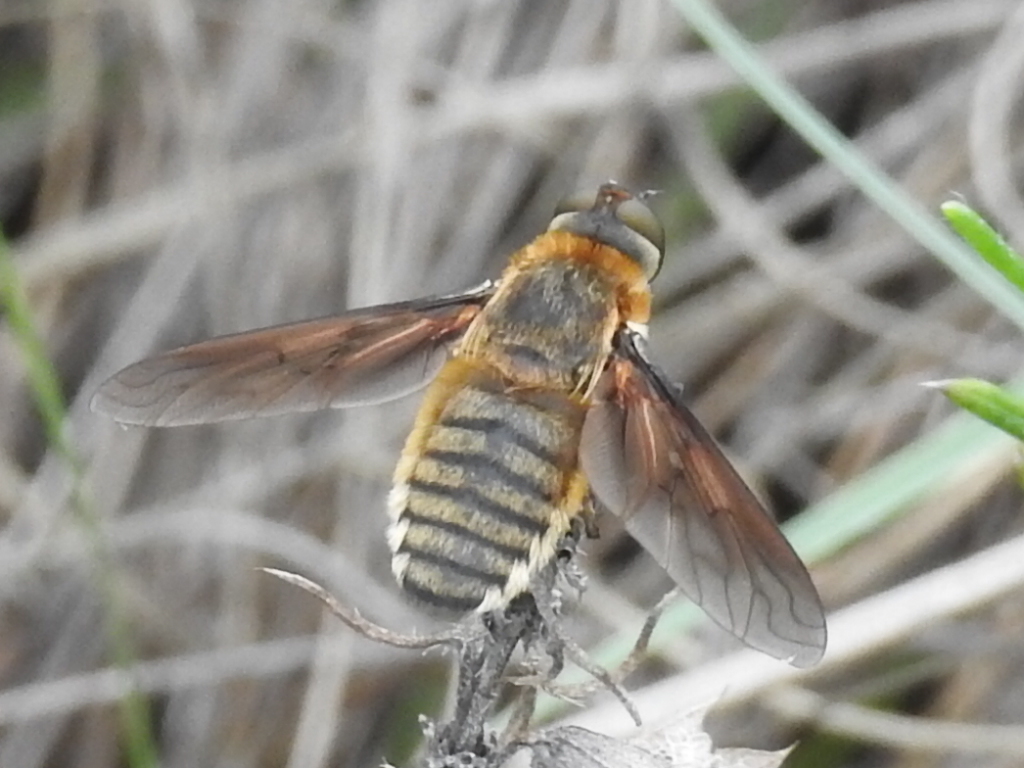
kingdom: Animalia
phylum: Arthropoda
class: Insecta
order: Diptera
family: Bombyliidae
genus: Poecilanthrax
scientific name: Poecilanthrax lucifer
